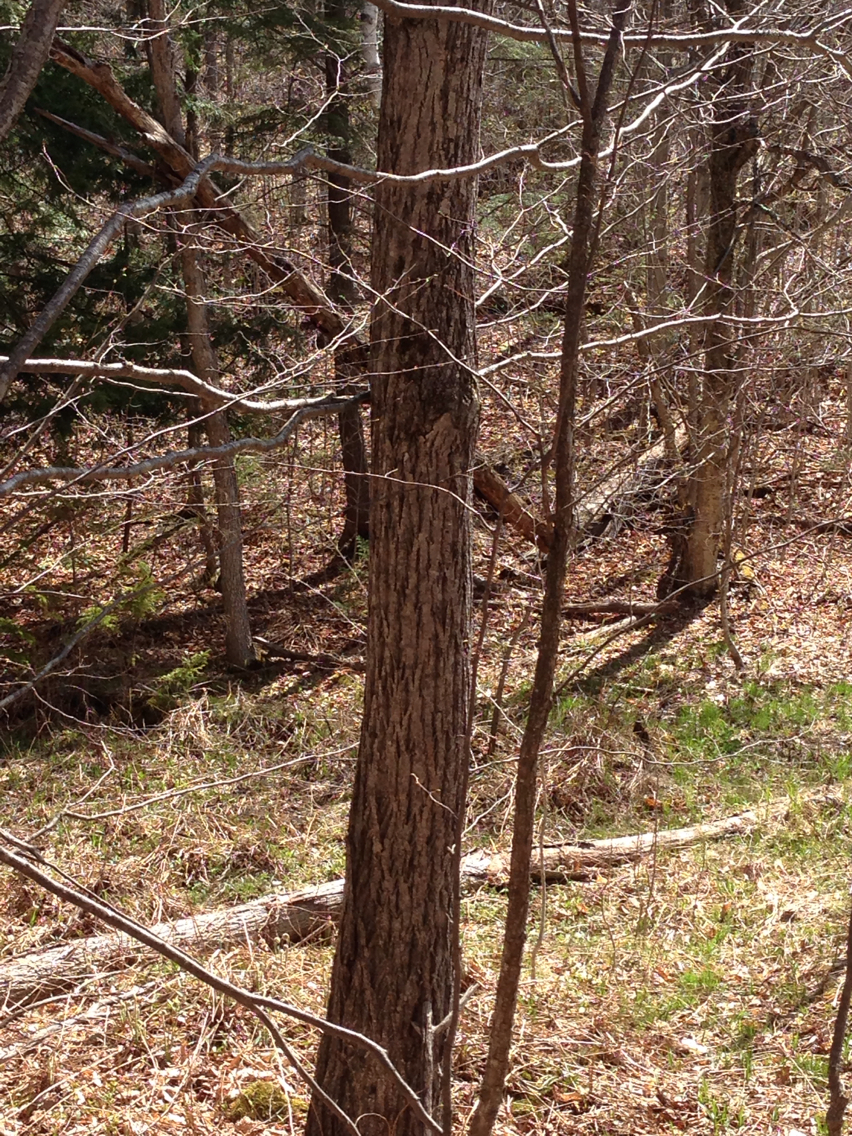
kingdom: Plantae
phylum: Tracheophyta
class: Magnoliopsida
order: Fagales
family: Juglandaceae
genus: Juglans
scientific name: Juglans cinerea
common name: Butternut
